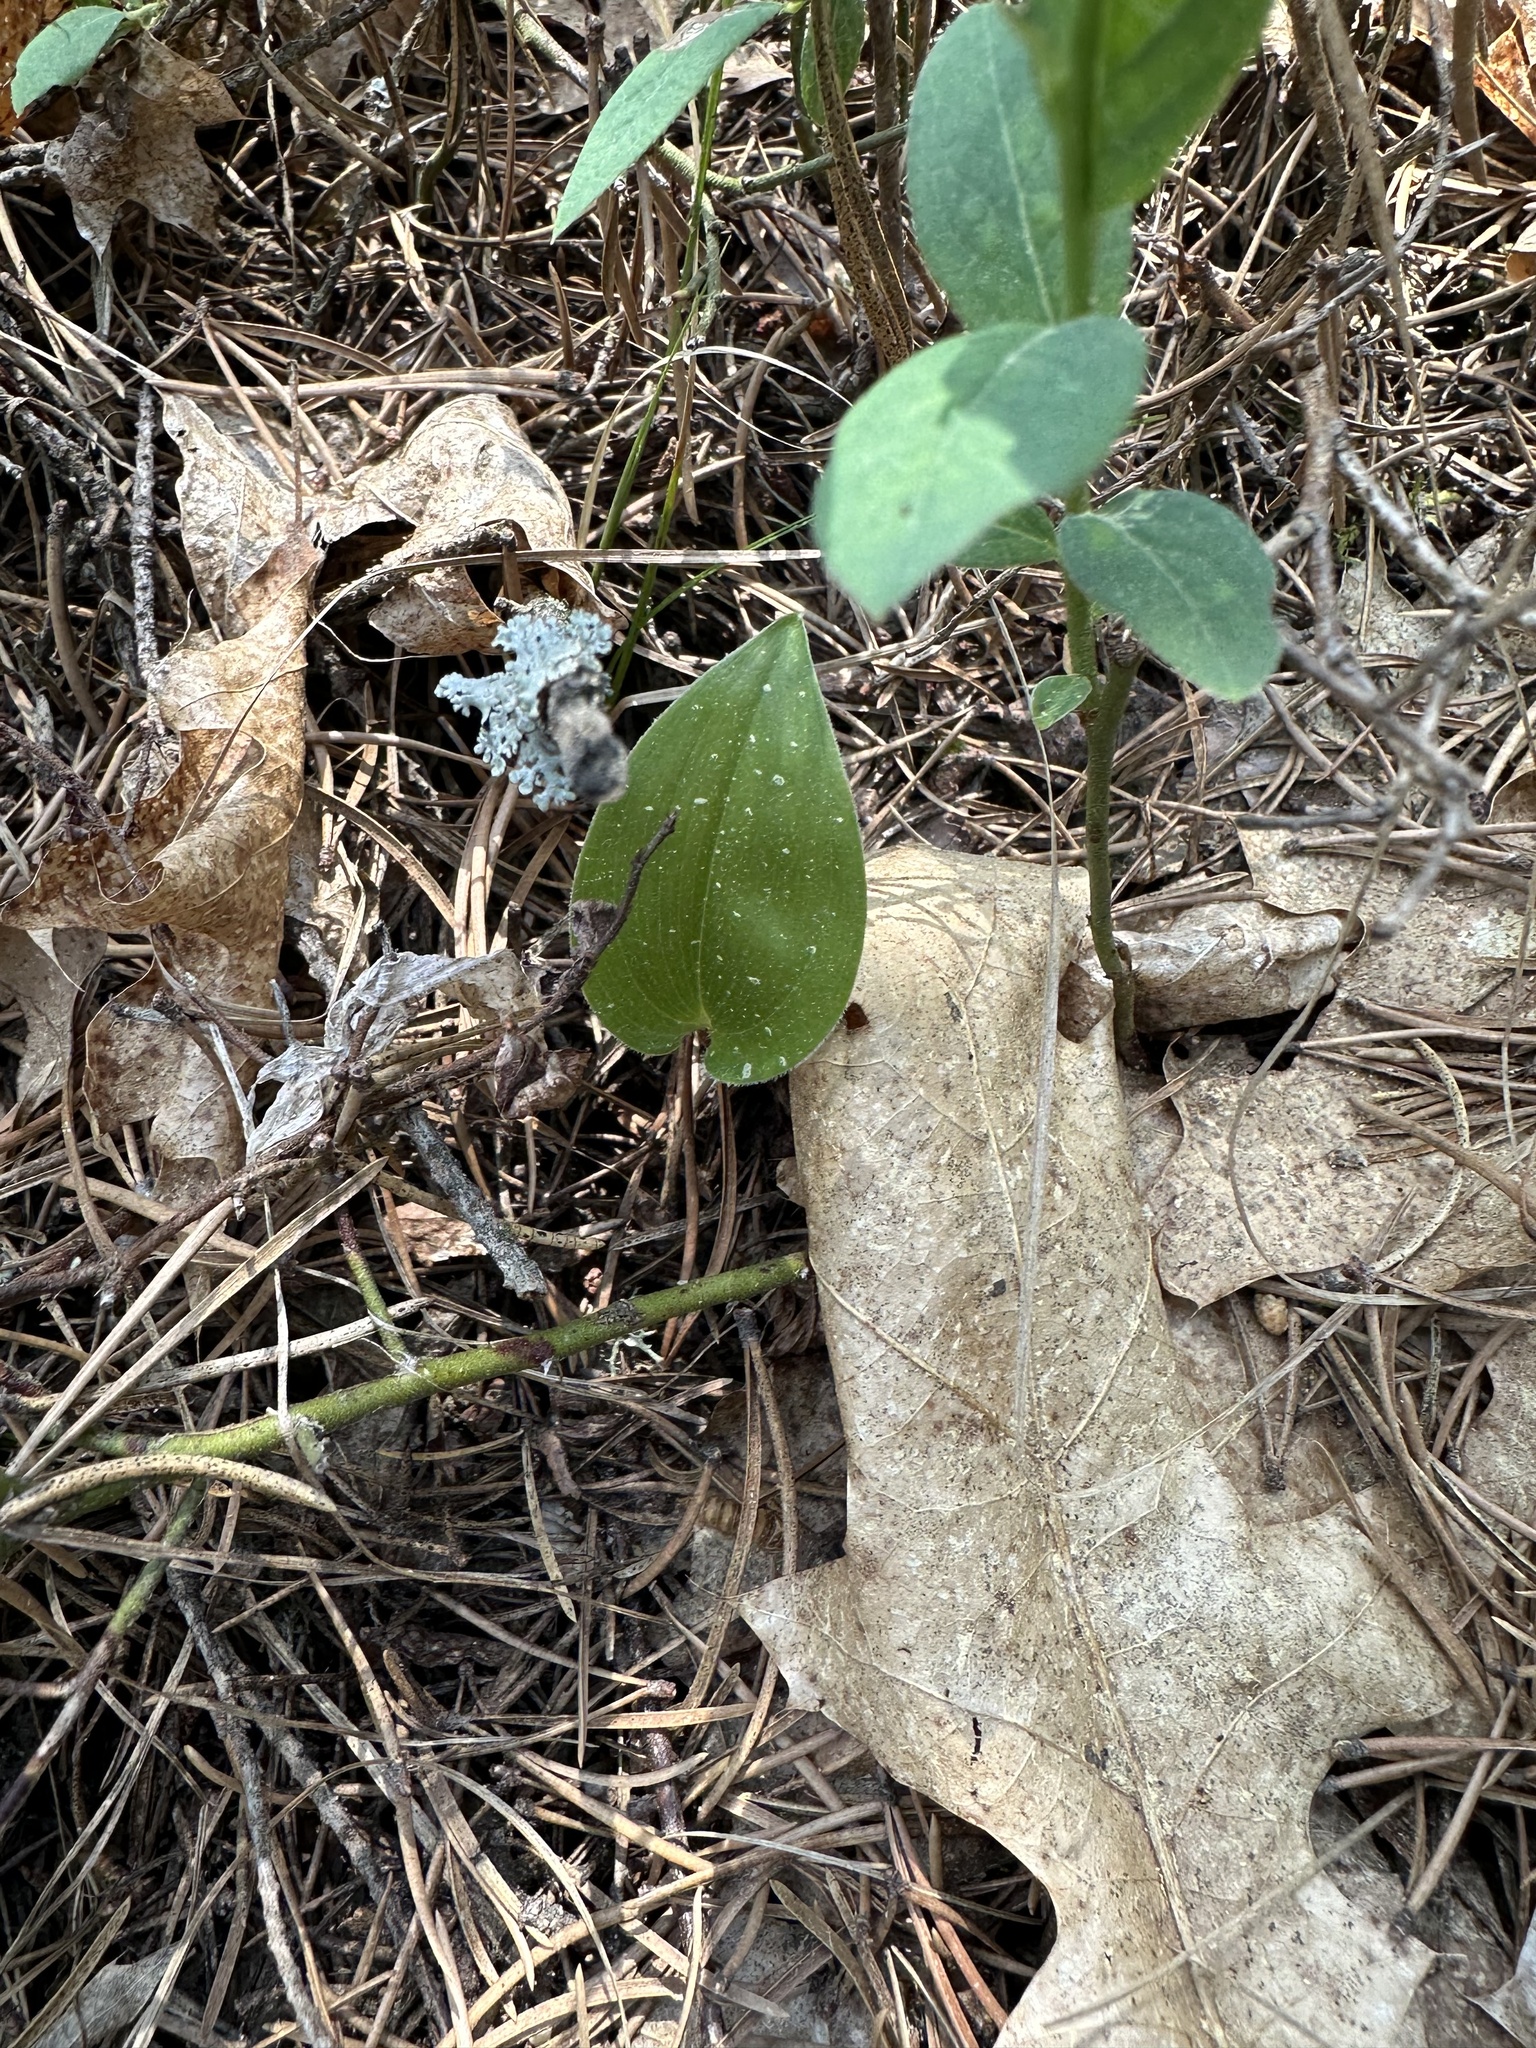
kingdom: Plantae
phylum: Tracheophyta
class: Liliopsida
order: Asparagales
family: Asparagaceae
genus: Maianthemum
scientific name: Maianthemum canadense
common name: False lily-of-the-valley
